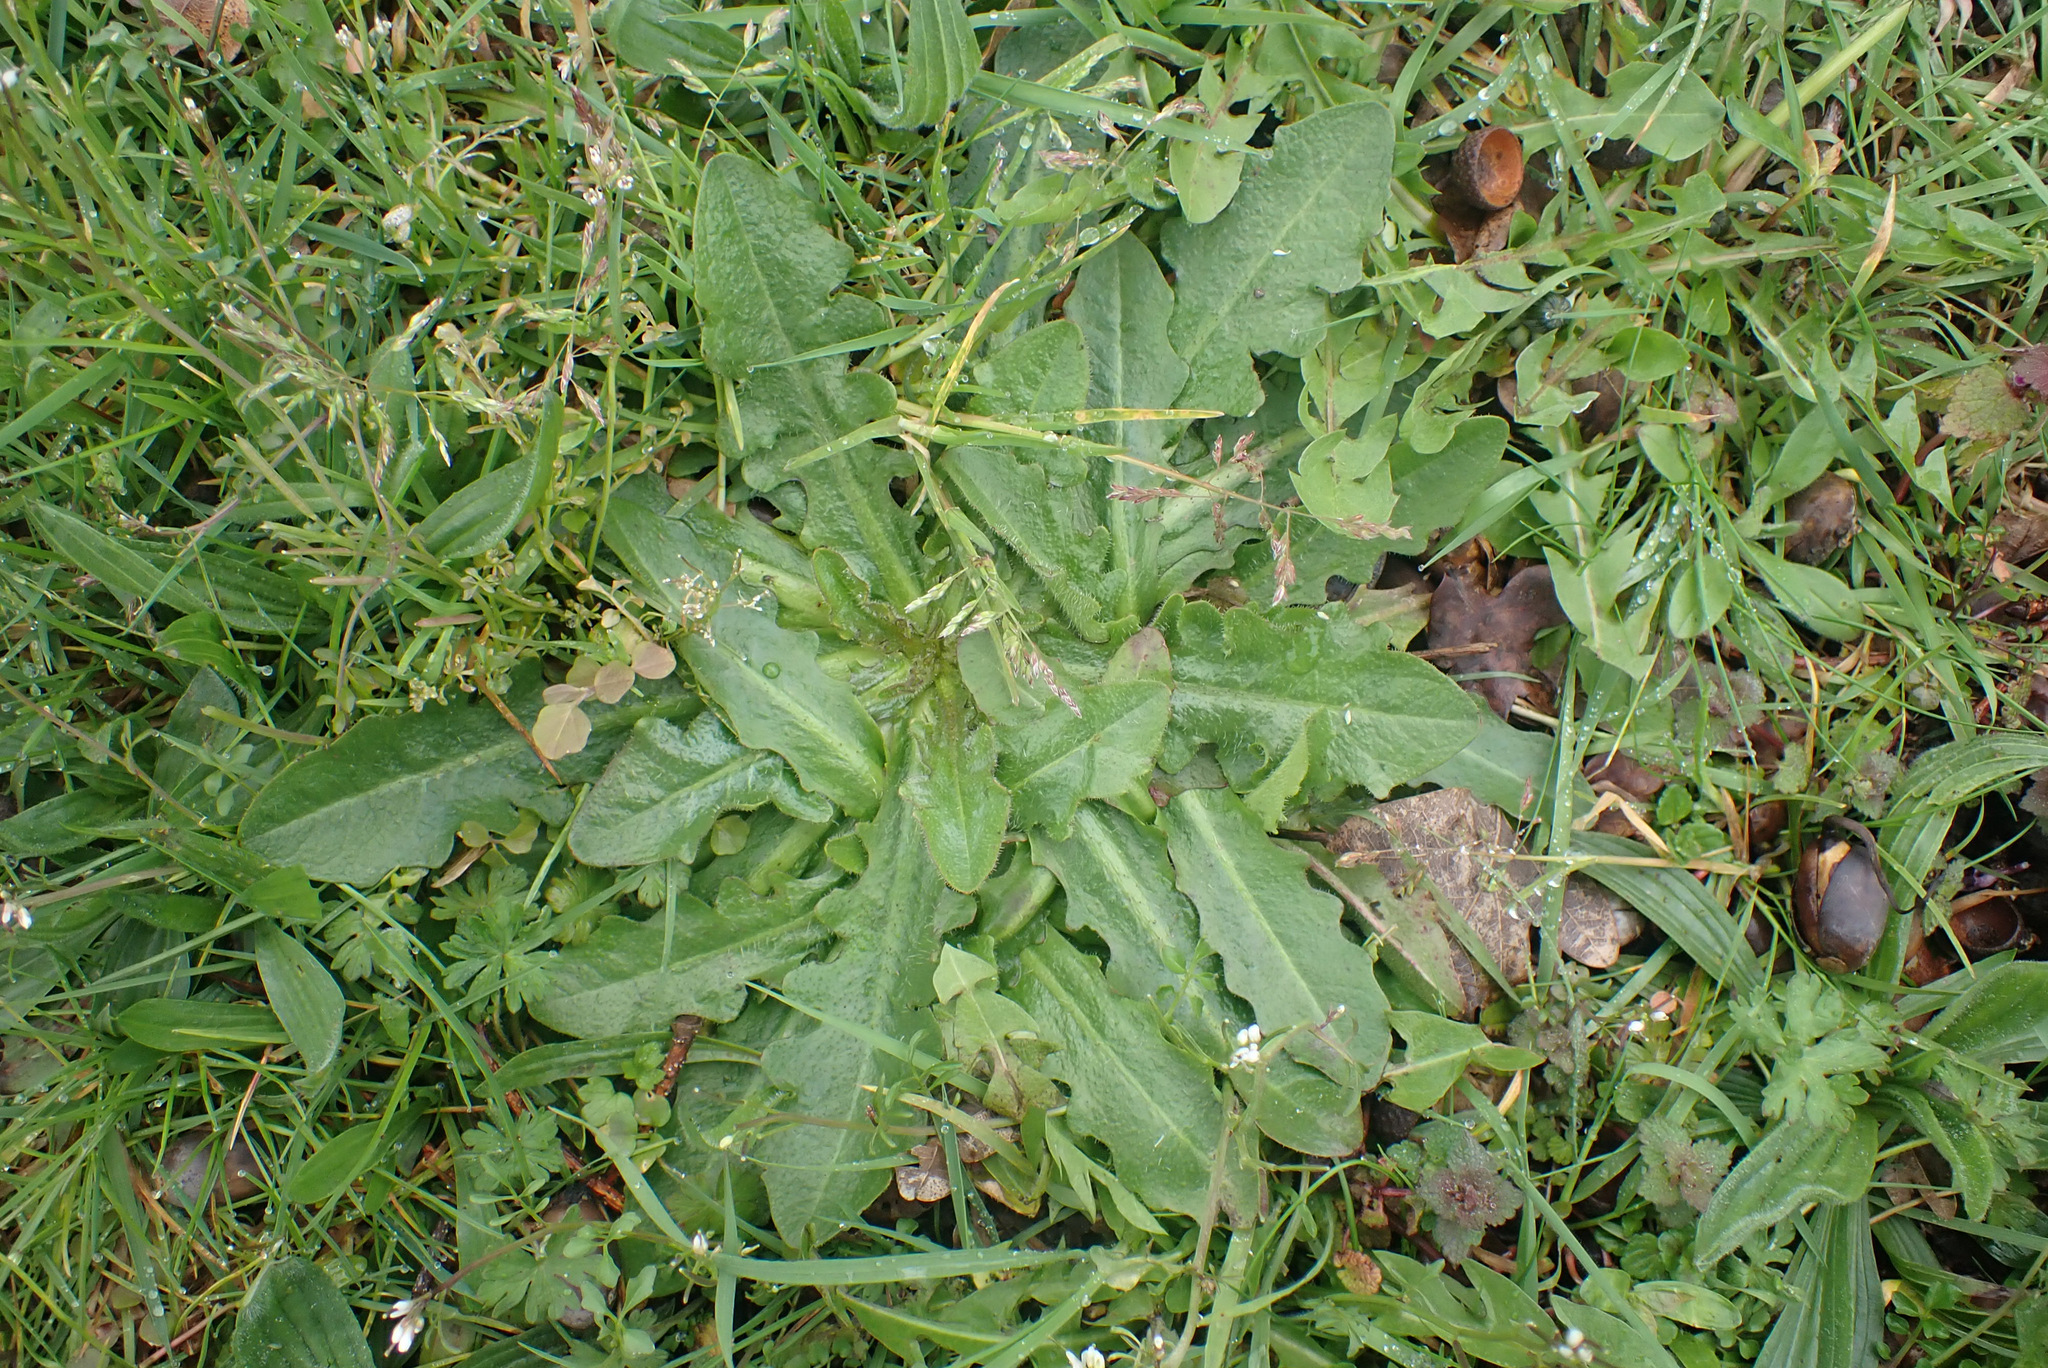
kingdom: Plantae
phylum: Tracheophyta
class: Magnoliopsida
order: Asterales
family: Asteraceae
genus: Hypochaeris
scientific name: Hypochaeris radicata
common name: Flatweed
